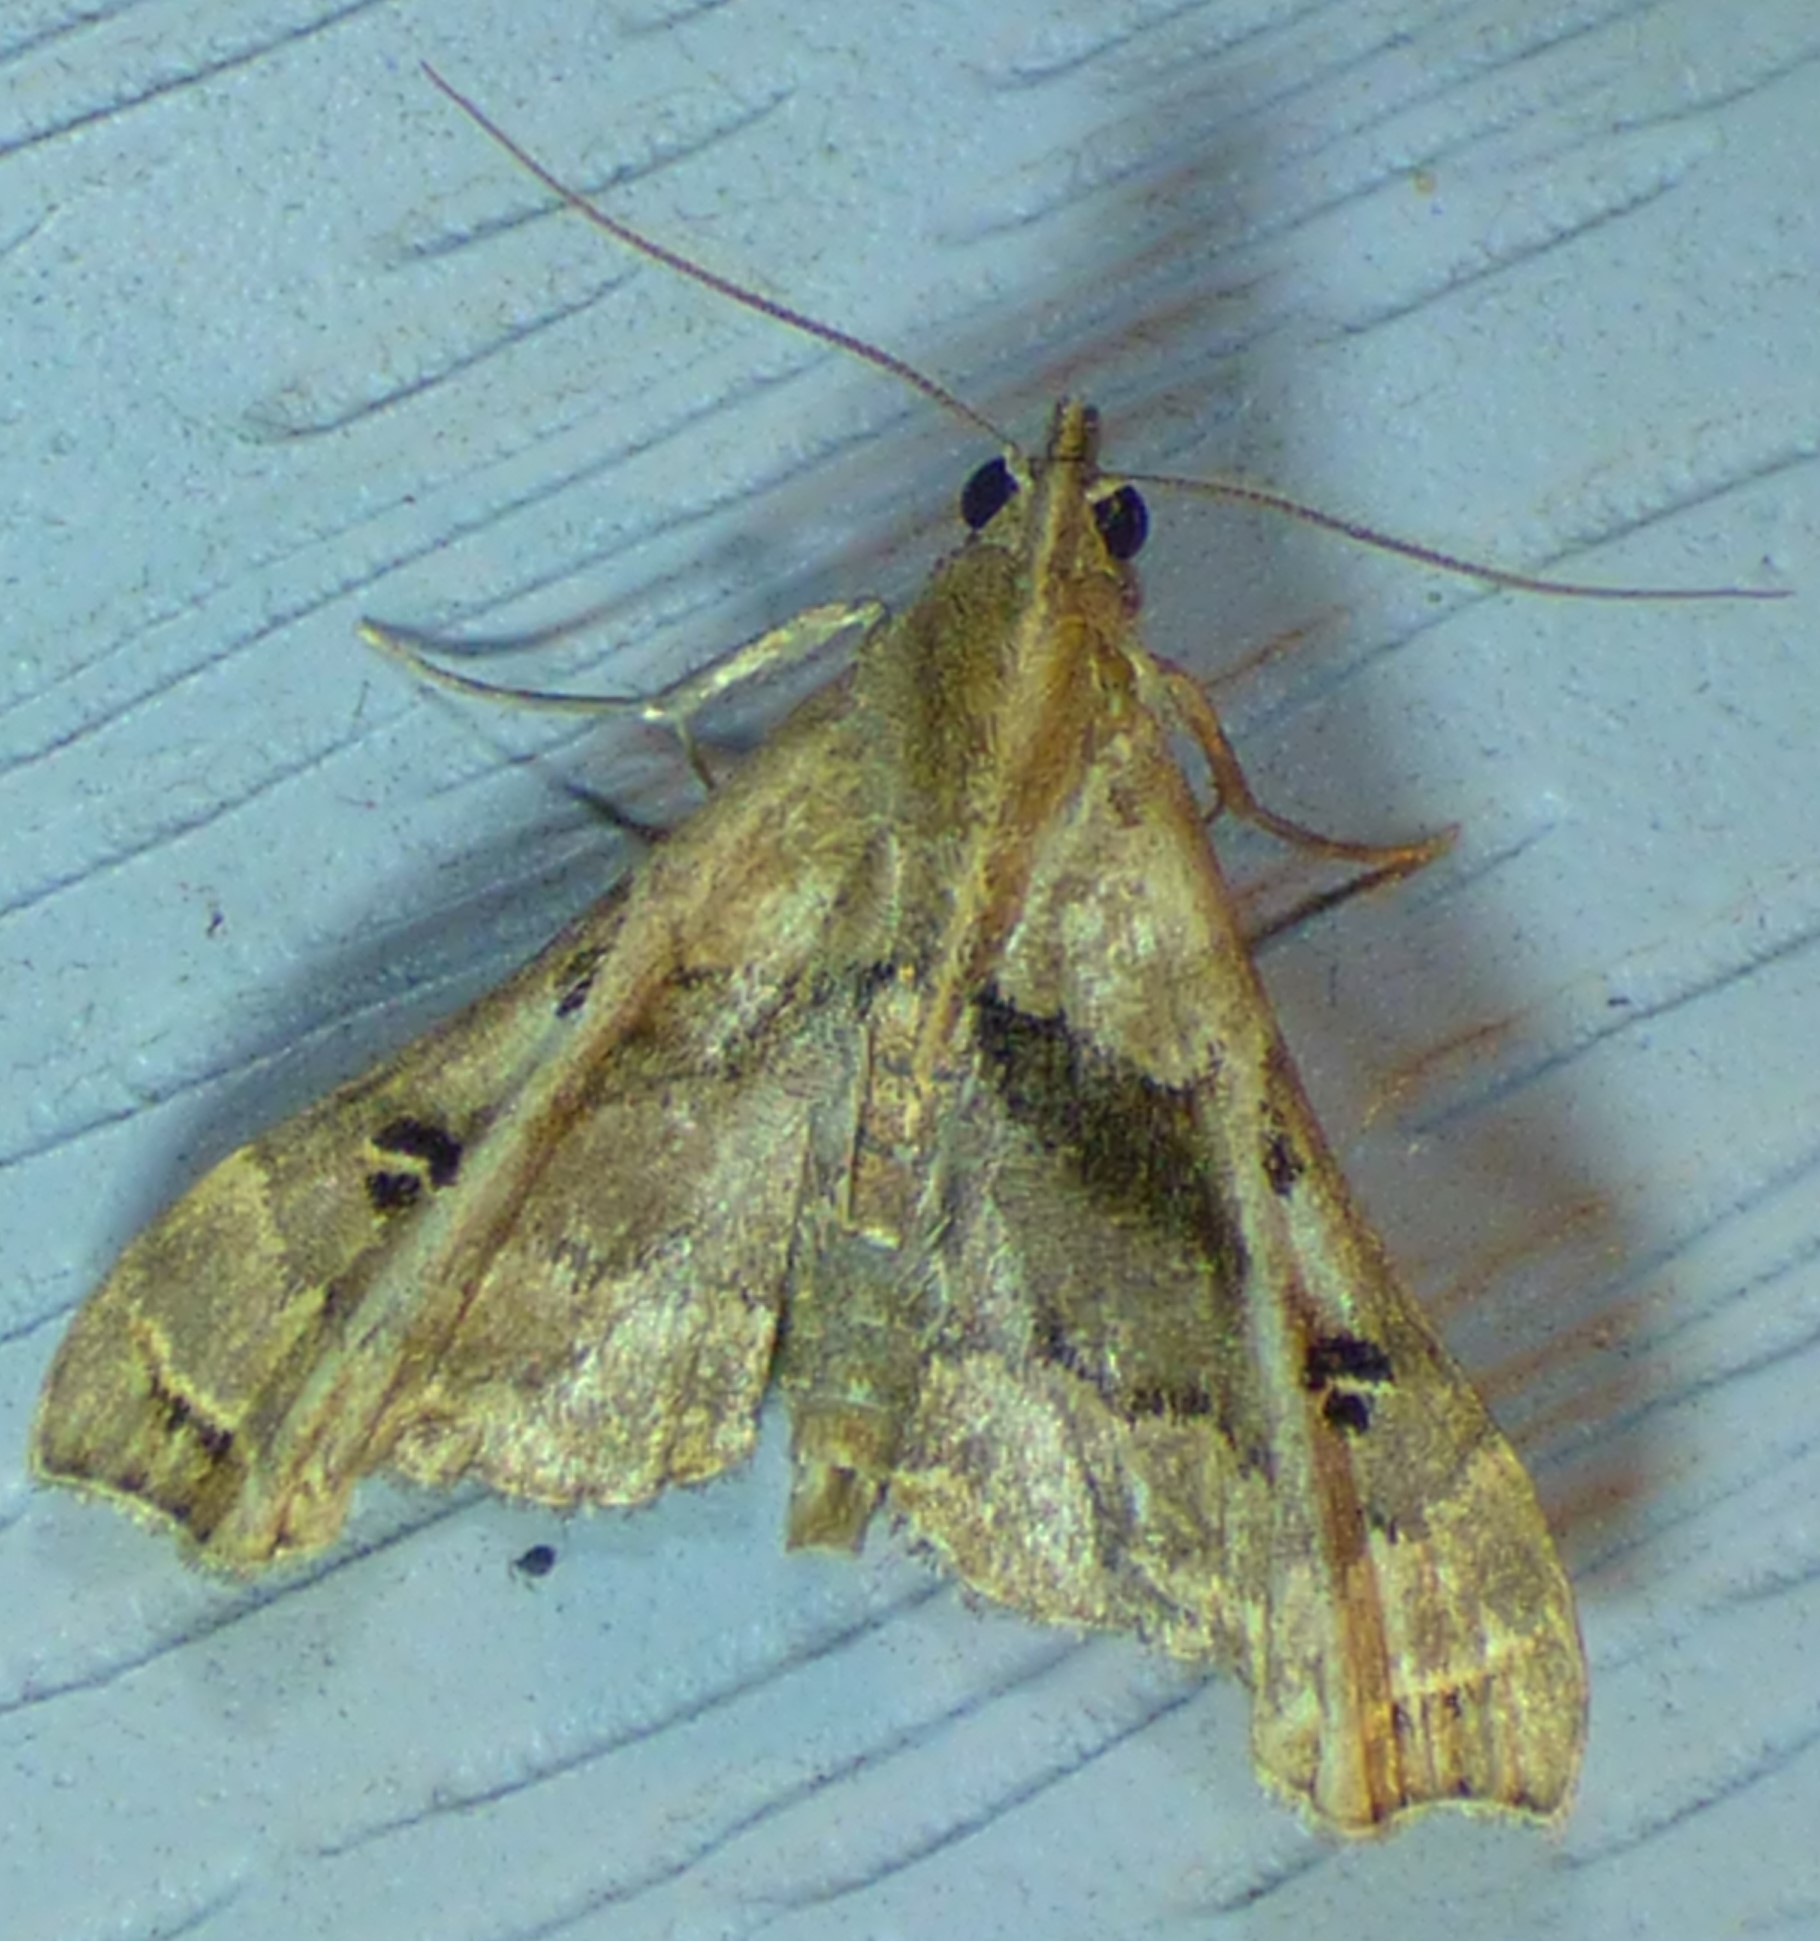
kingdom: Animalia
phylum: Arthropoda
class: Insecta
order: Lepidoptera
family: Erebidae
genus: Palthis
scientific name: Palthis asopialis
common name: Faint-spotted palthis moth
